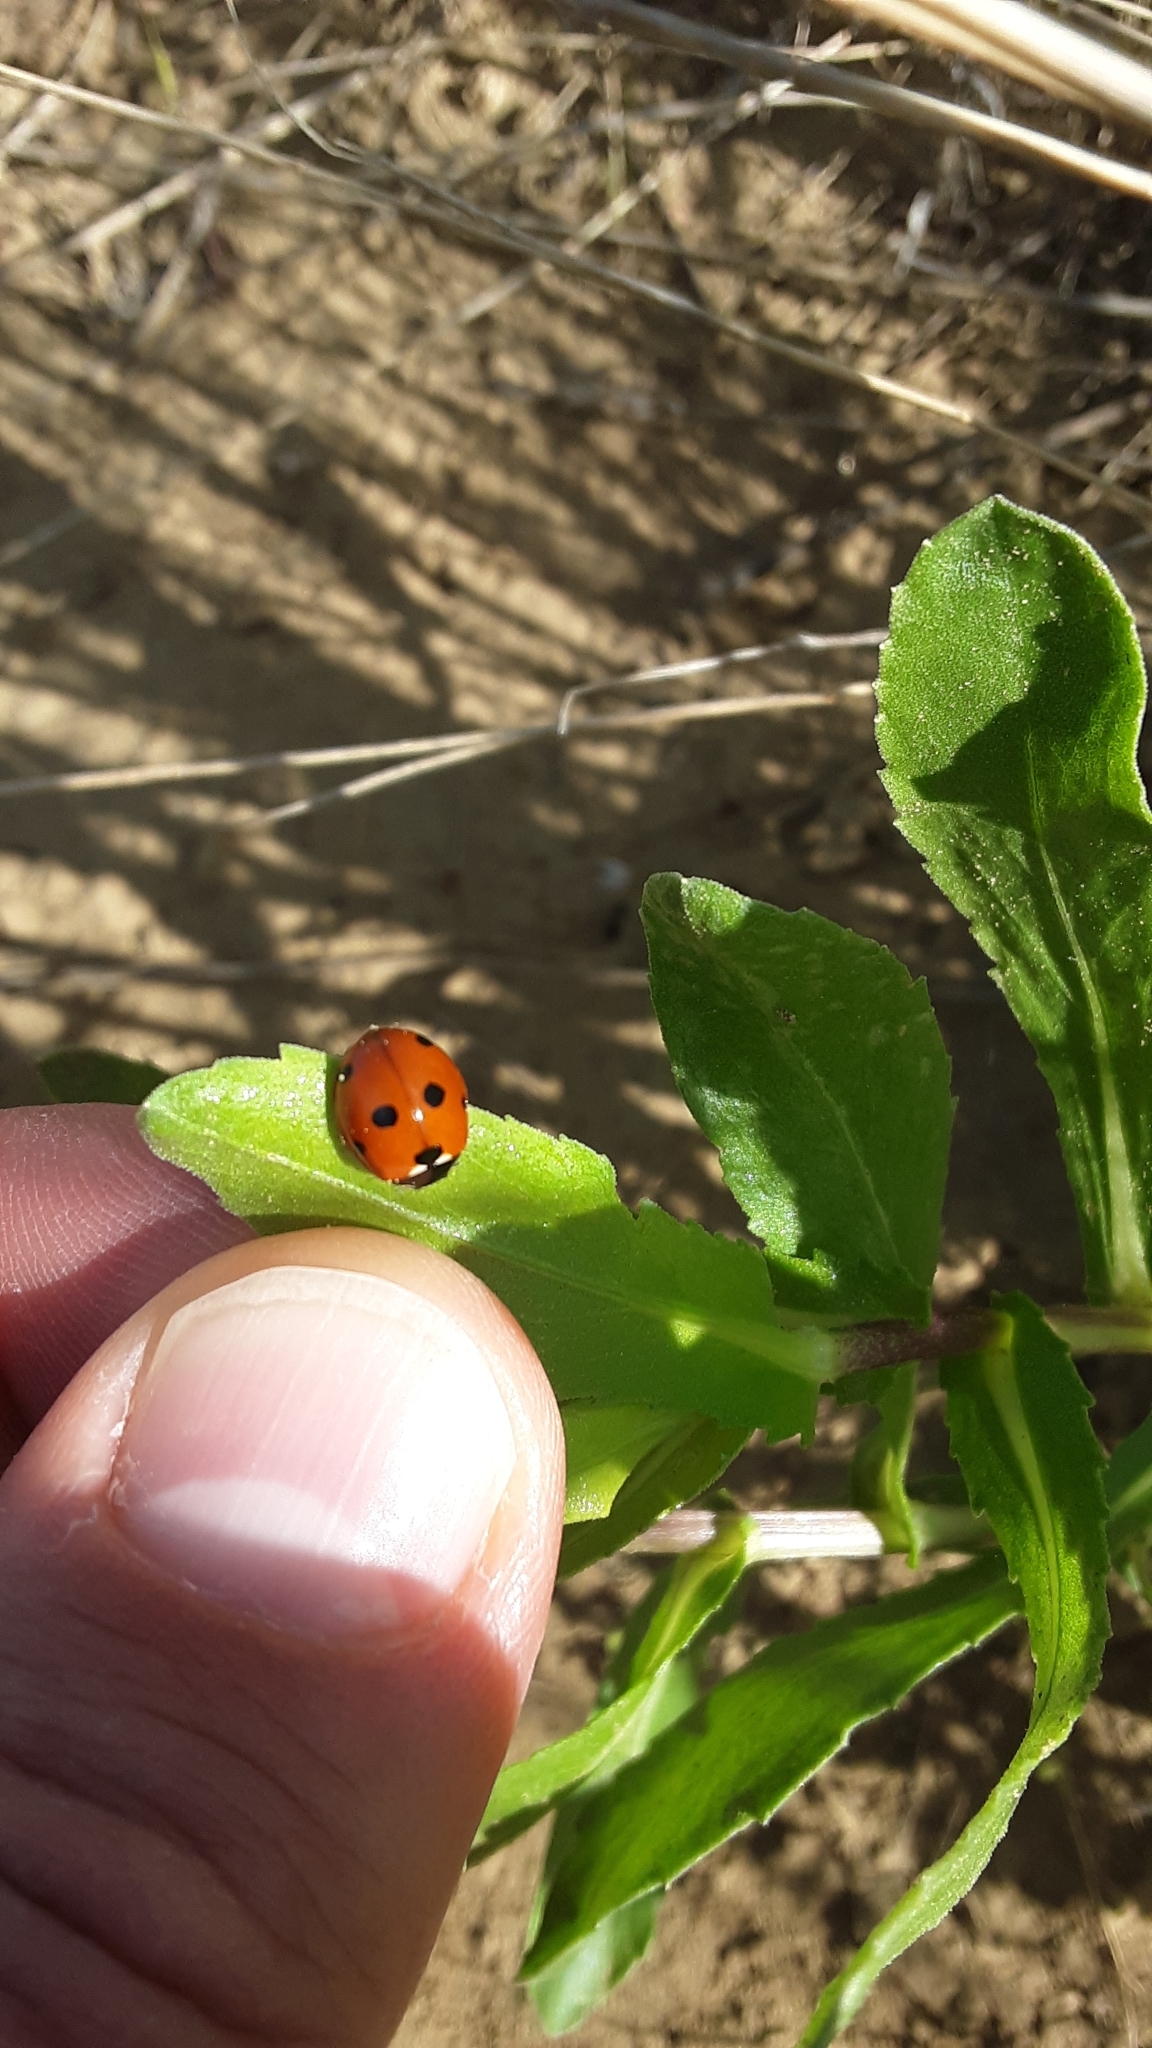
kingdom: Animalia
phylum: Arthropoda
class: Insecta
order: Coleoptera
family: Coccinellidae
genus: Coccinella
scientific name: Coccinella septempunctata
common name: Sevenspotted lady beetle
